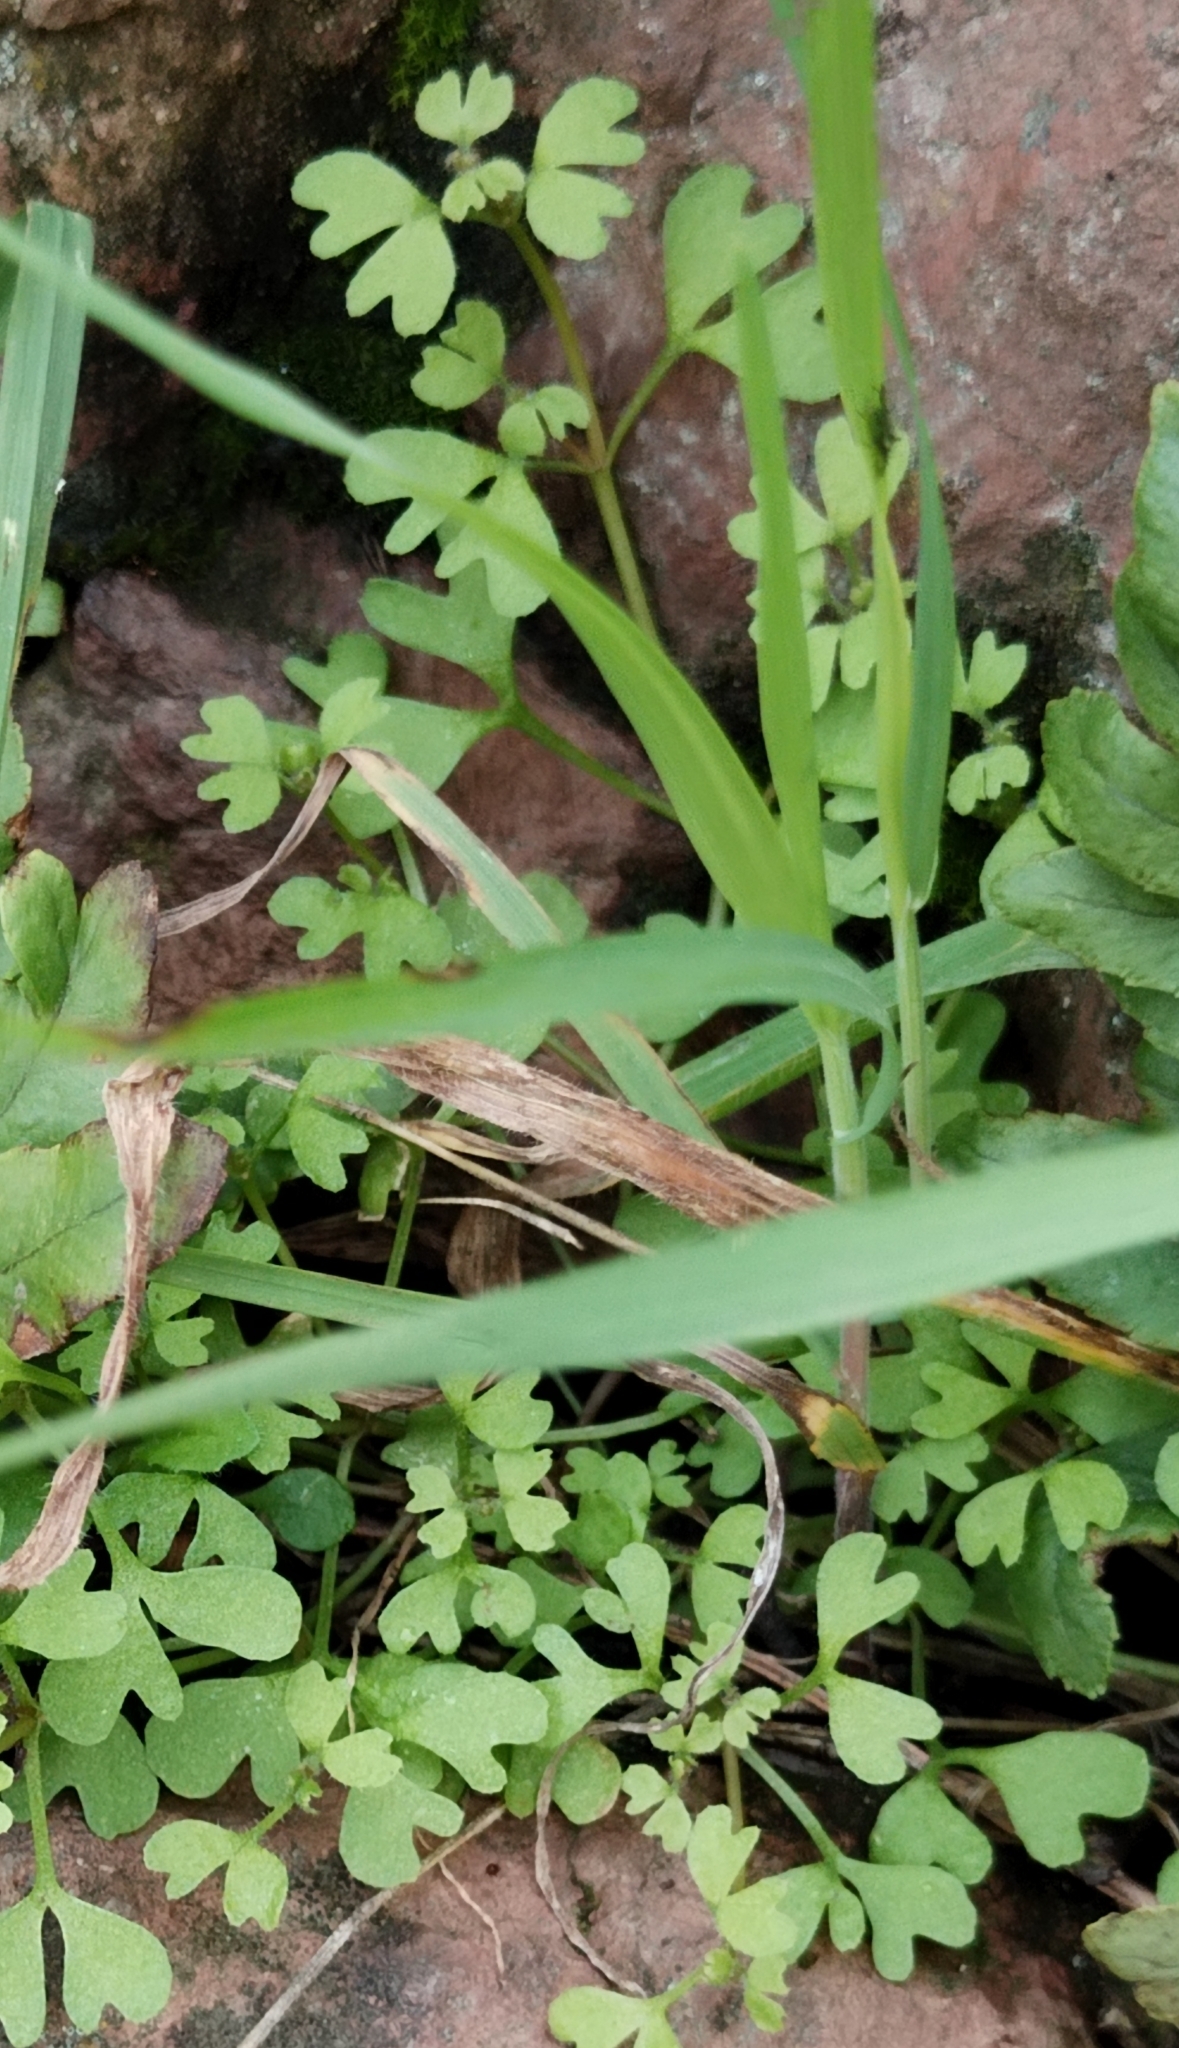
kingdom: Plantae
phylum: Tracheophyta
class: Magnoliopsida
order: Caryophyllales
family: Polygonaceae
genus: Pterostegia
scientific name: Pterostegia drymarioides
